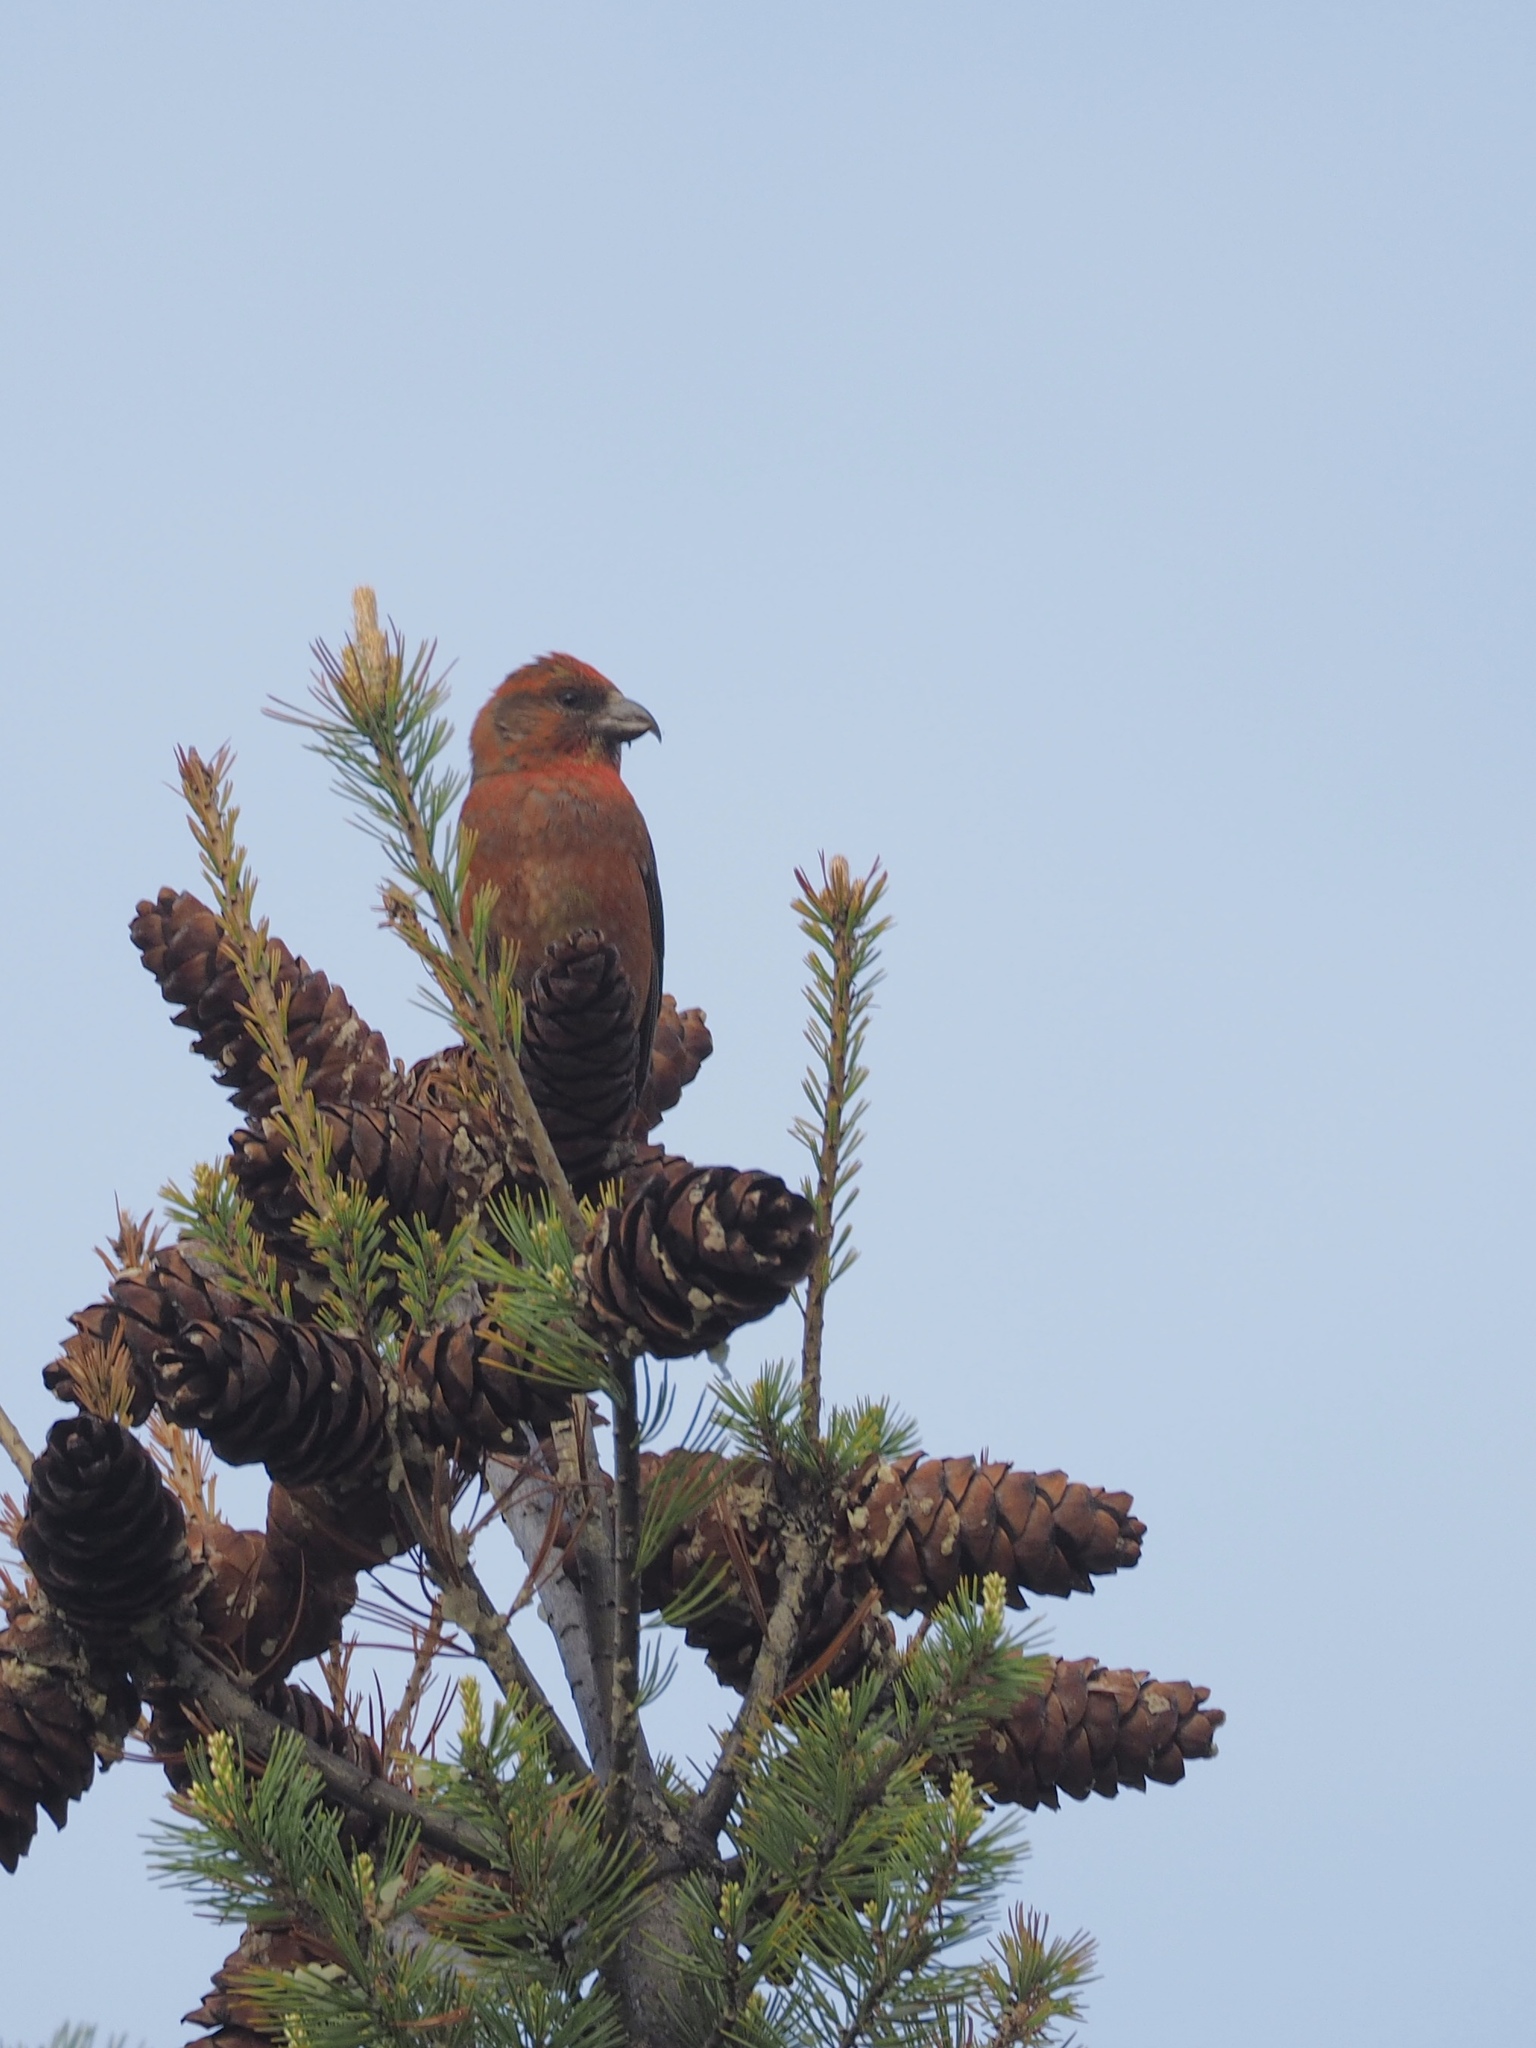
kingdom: Animalia
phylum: Chordata
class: Aves
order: Passeriformes
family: Fringillidae
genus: Loxia
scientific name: Loxia curvirostra
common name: Red crossbill
